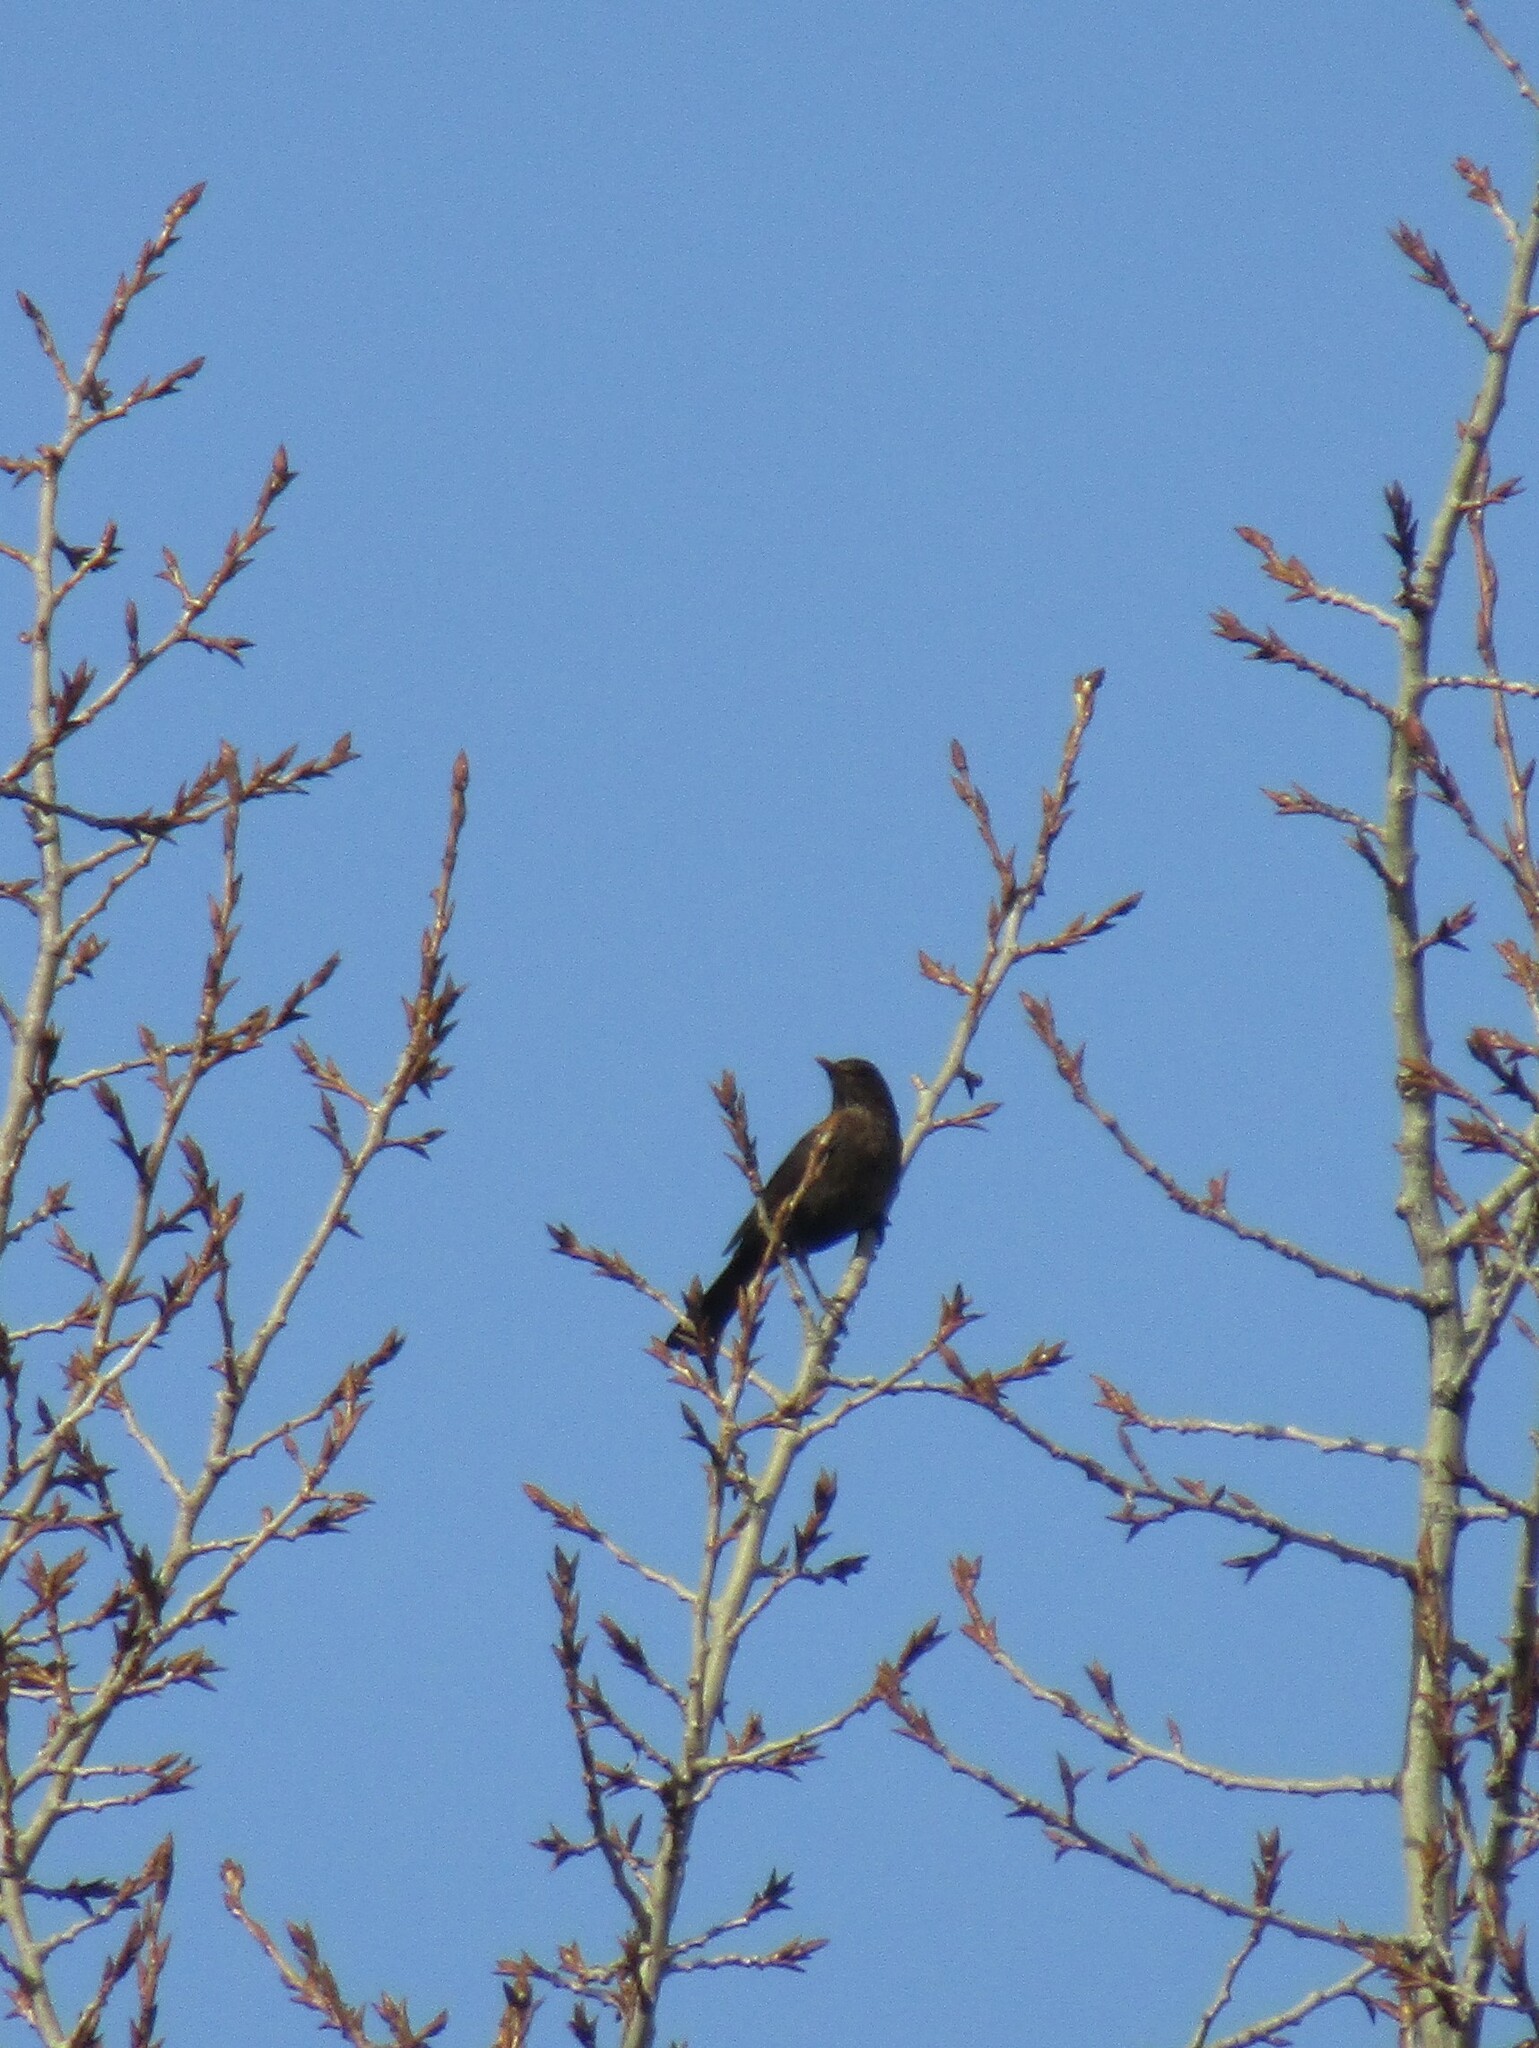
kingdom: Animalia
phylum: Chordata
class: Aves
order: Passeriformes
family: Turdidae
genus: Turdus
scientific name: Turdus merula
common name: Common blackbird
